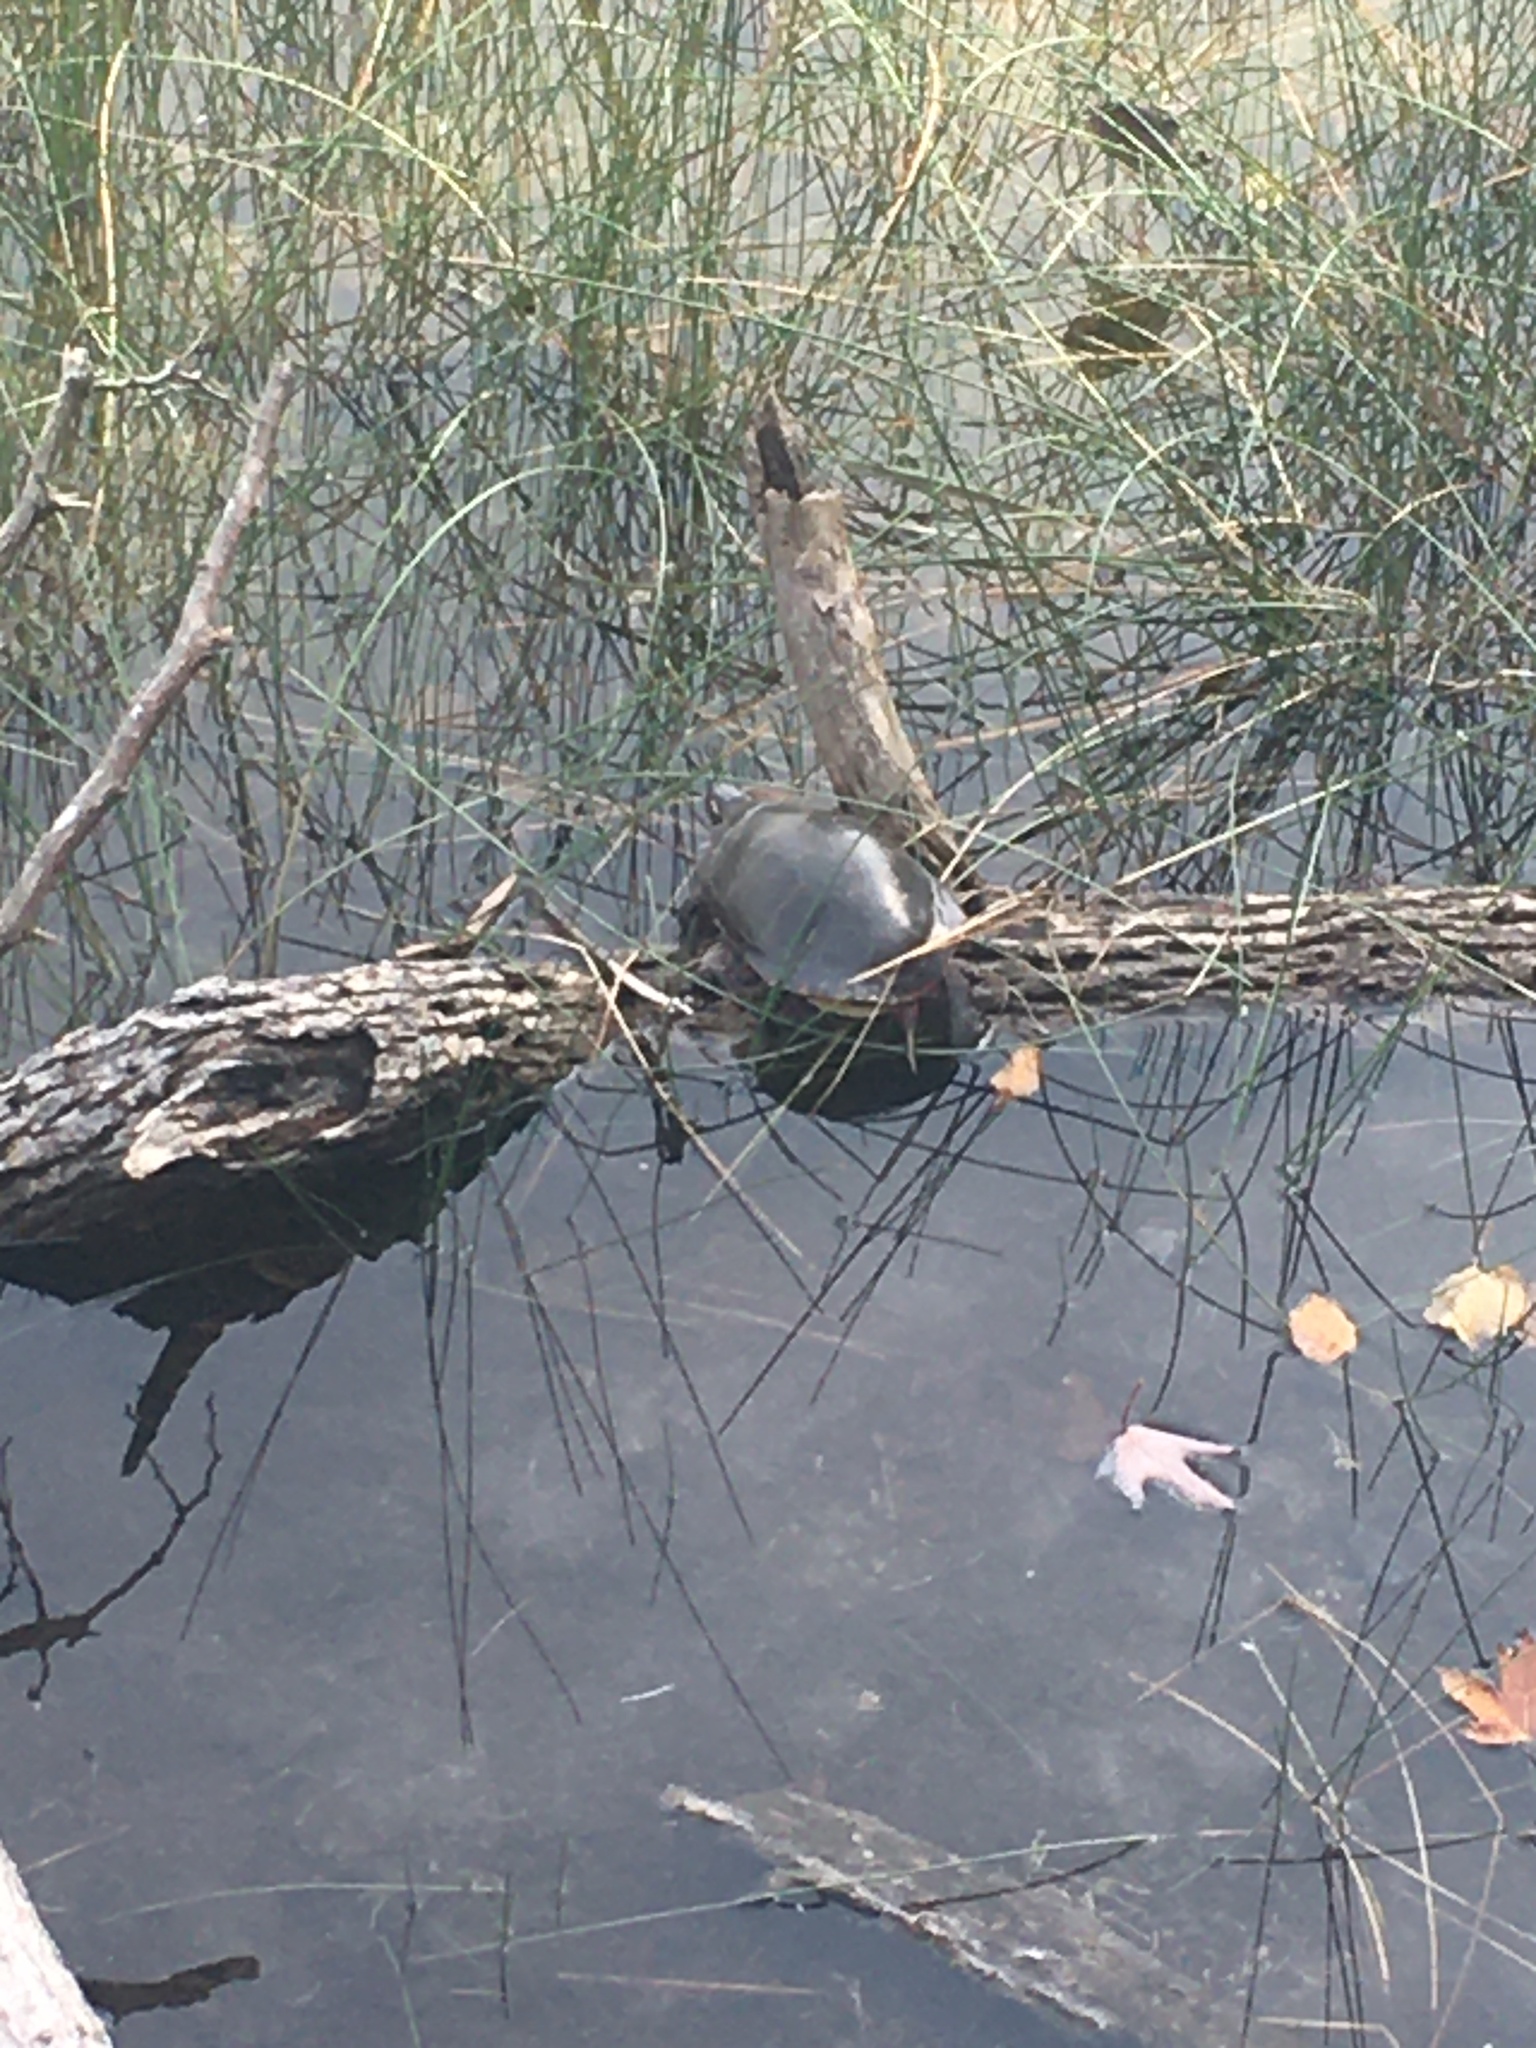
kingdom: Animalia
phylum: Chordata
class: Testudines
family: Emydidae
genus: Chrysemys
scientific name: Chrysemys picta
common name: Painted turtle
